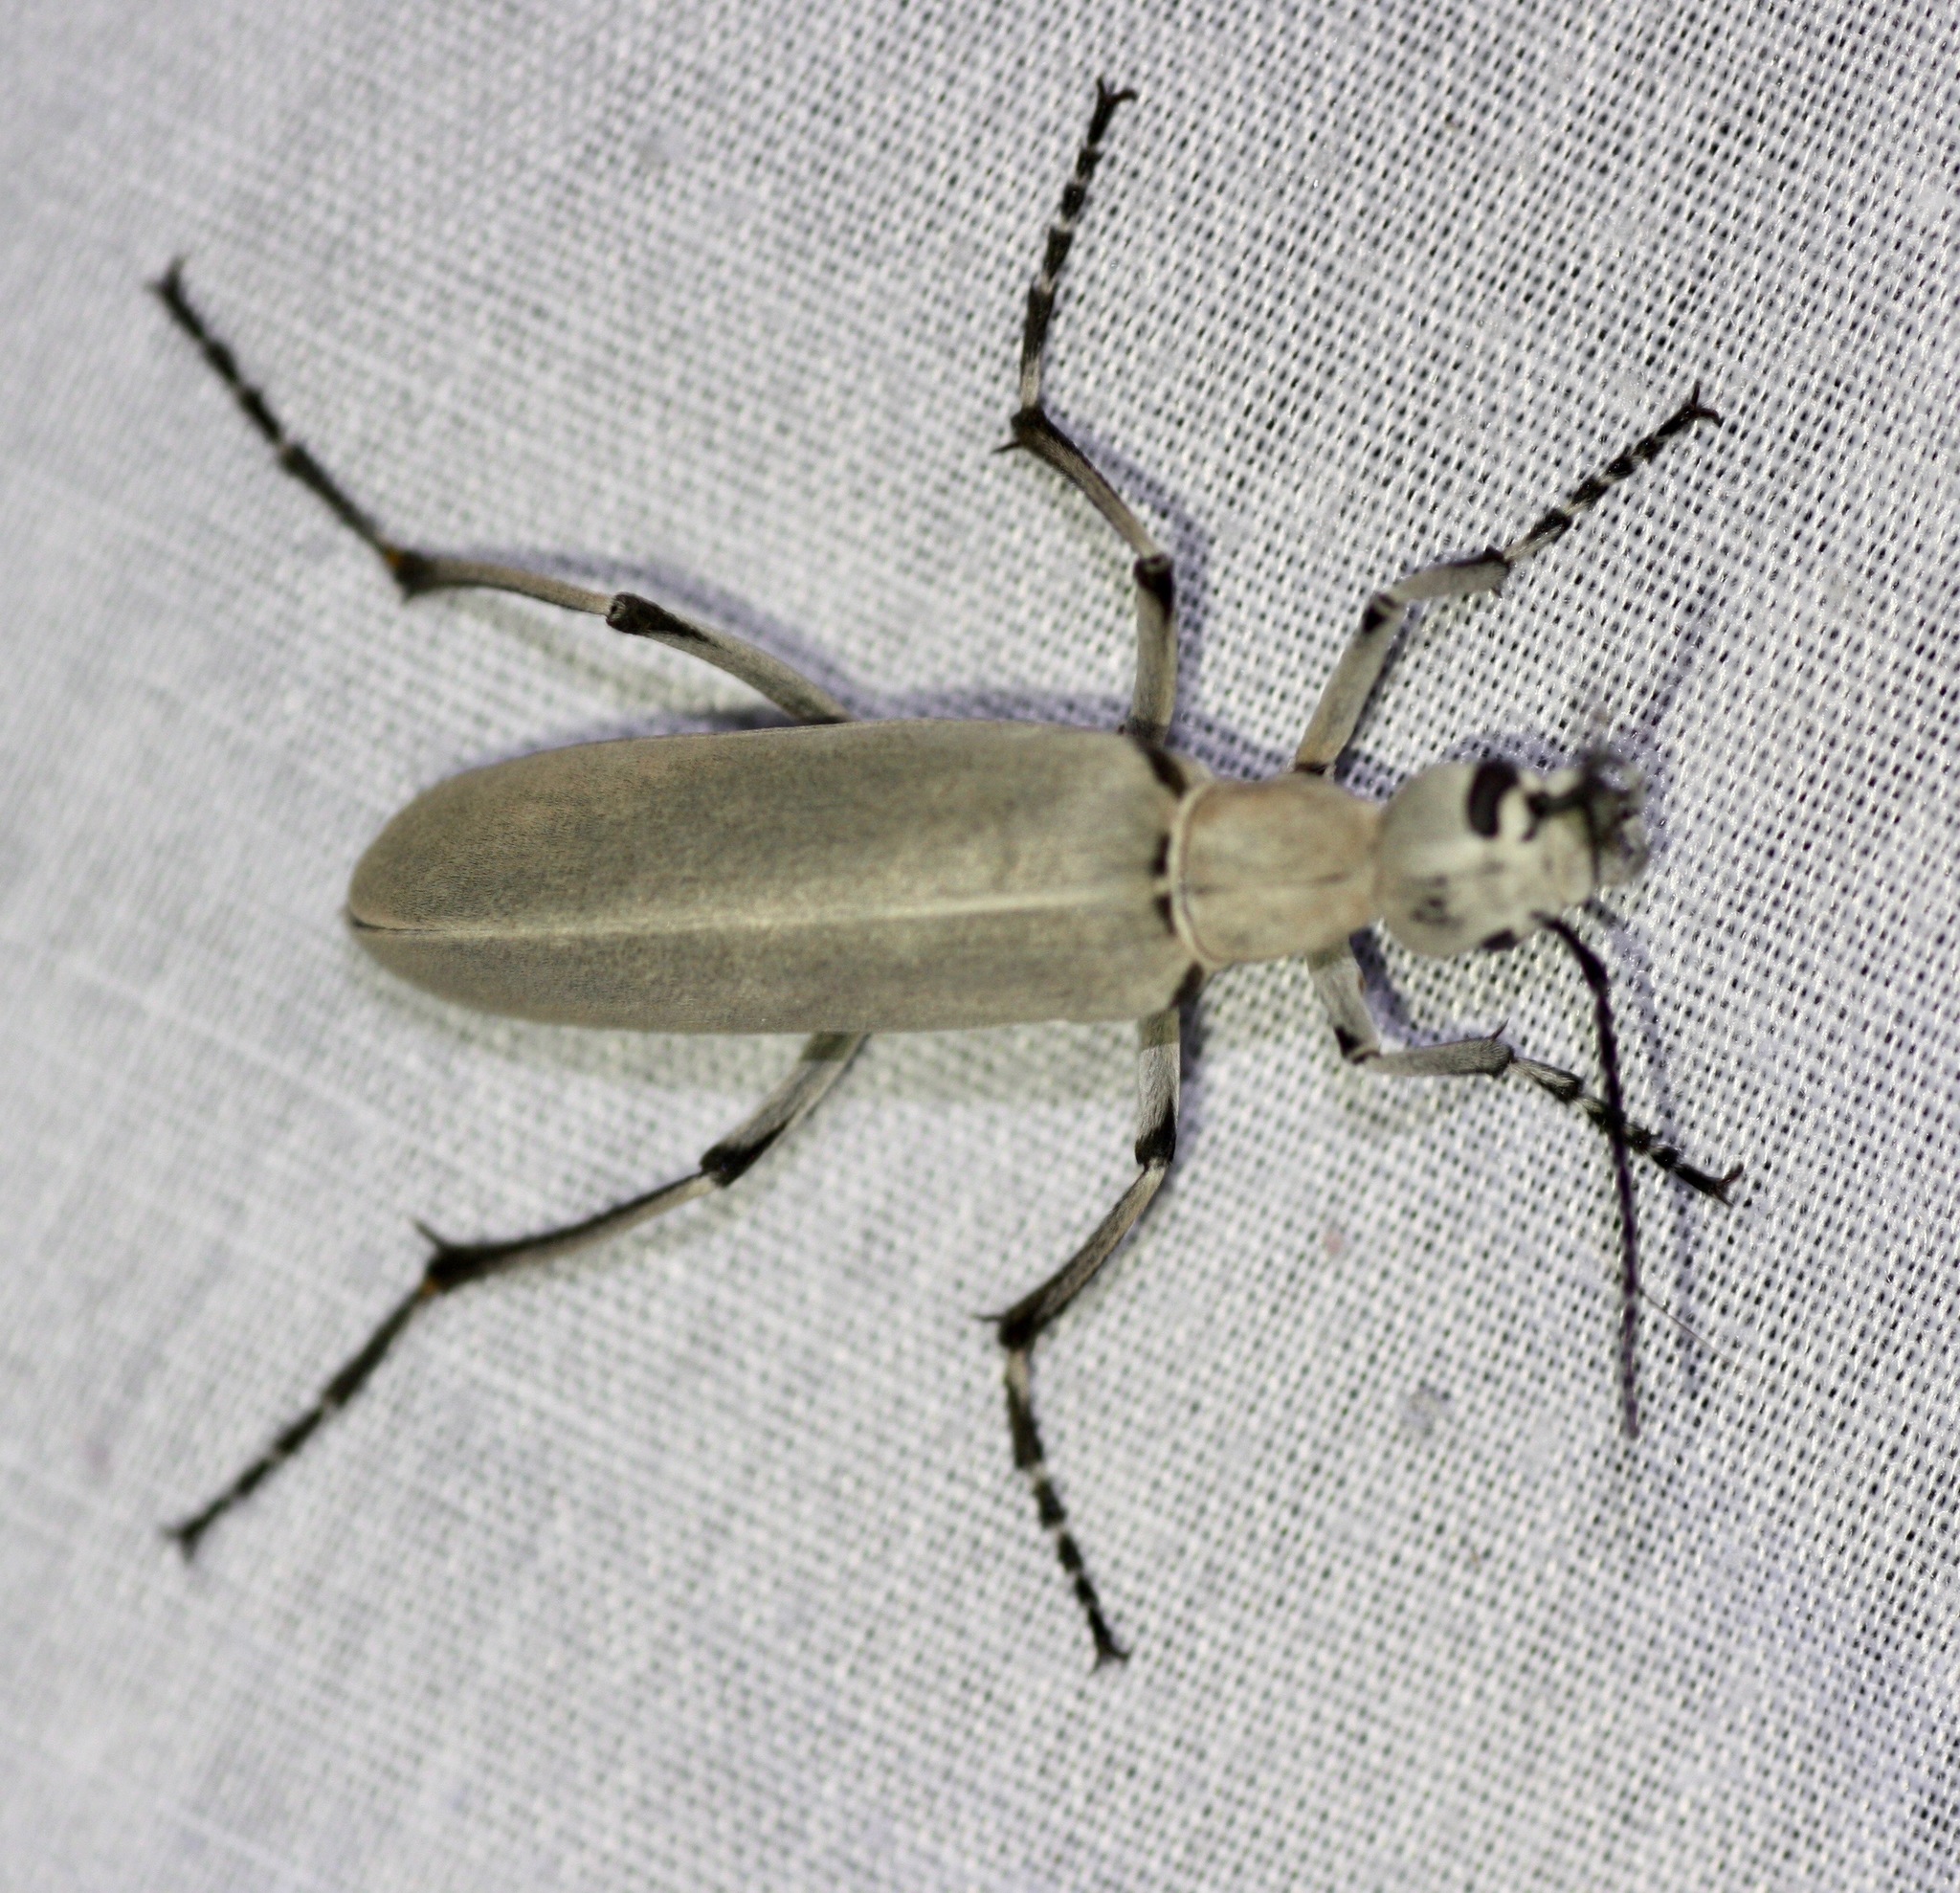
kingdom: Animalia
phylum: Arthropoda
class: Insecta
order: Coleoptera
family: Meloidae
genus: Epicauta
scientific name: Epicauta longicollis
